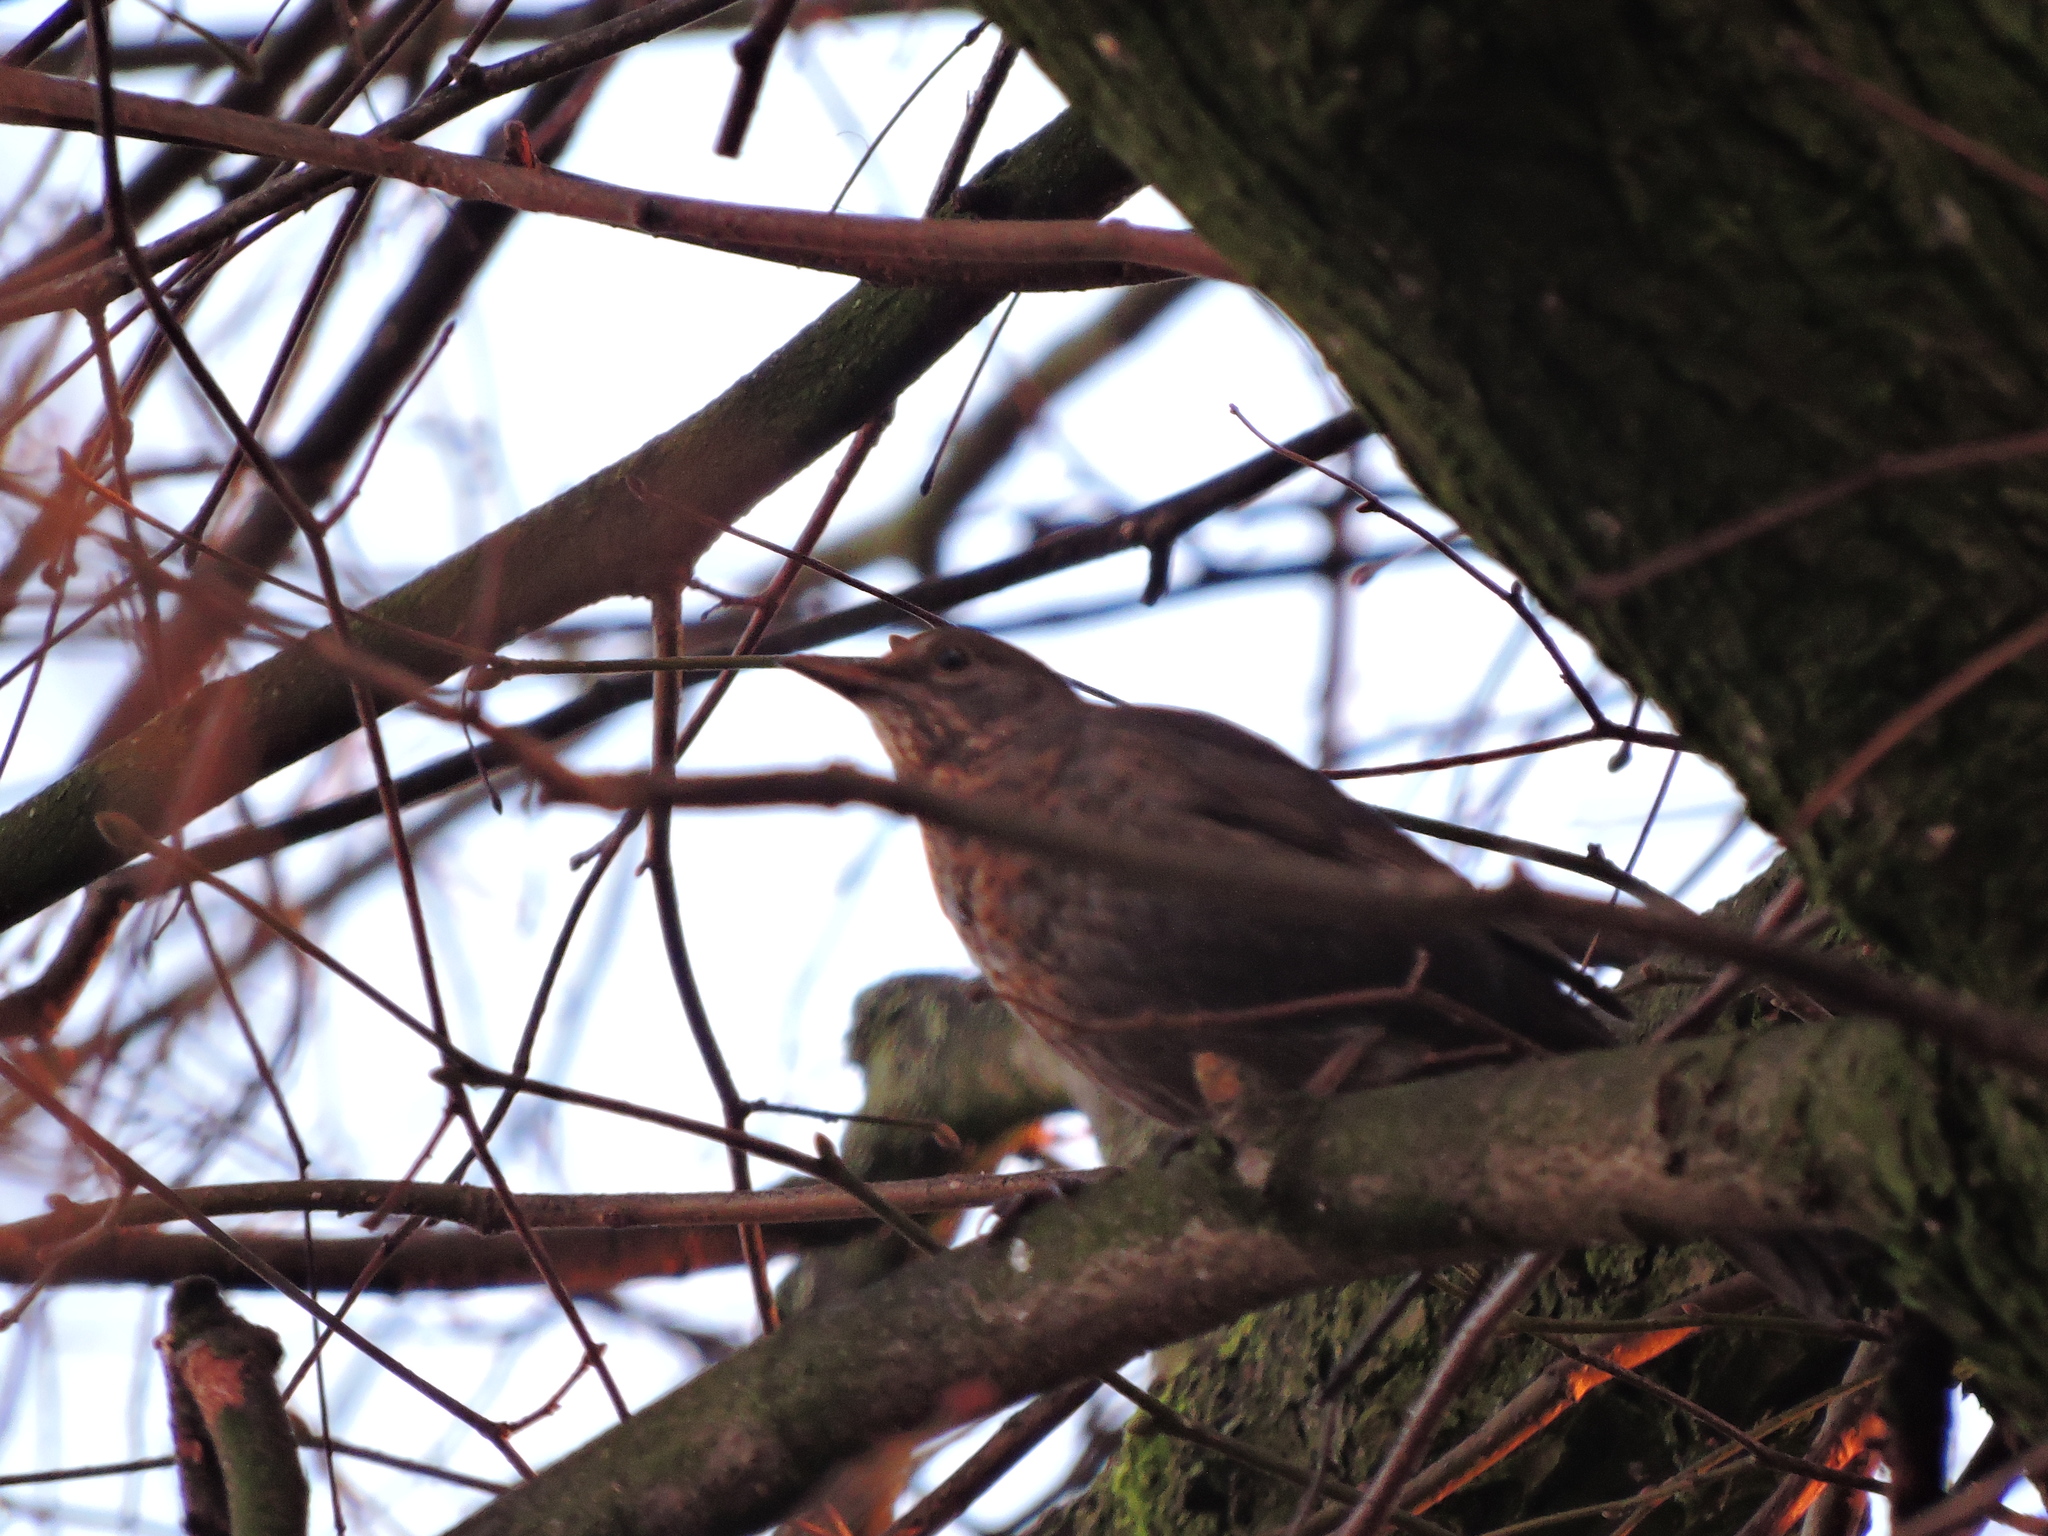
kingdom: Animalia
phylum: Chordata
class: Aves
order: Passeriformes
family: Turdidae
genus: Turdus
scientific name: Turdus merula
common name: Common blackbird
